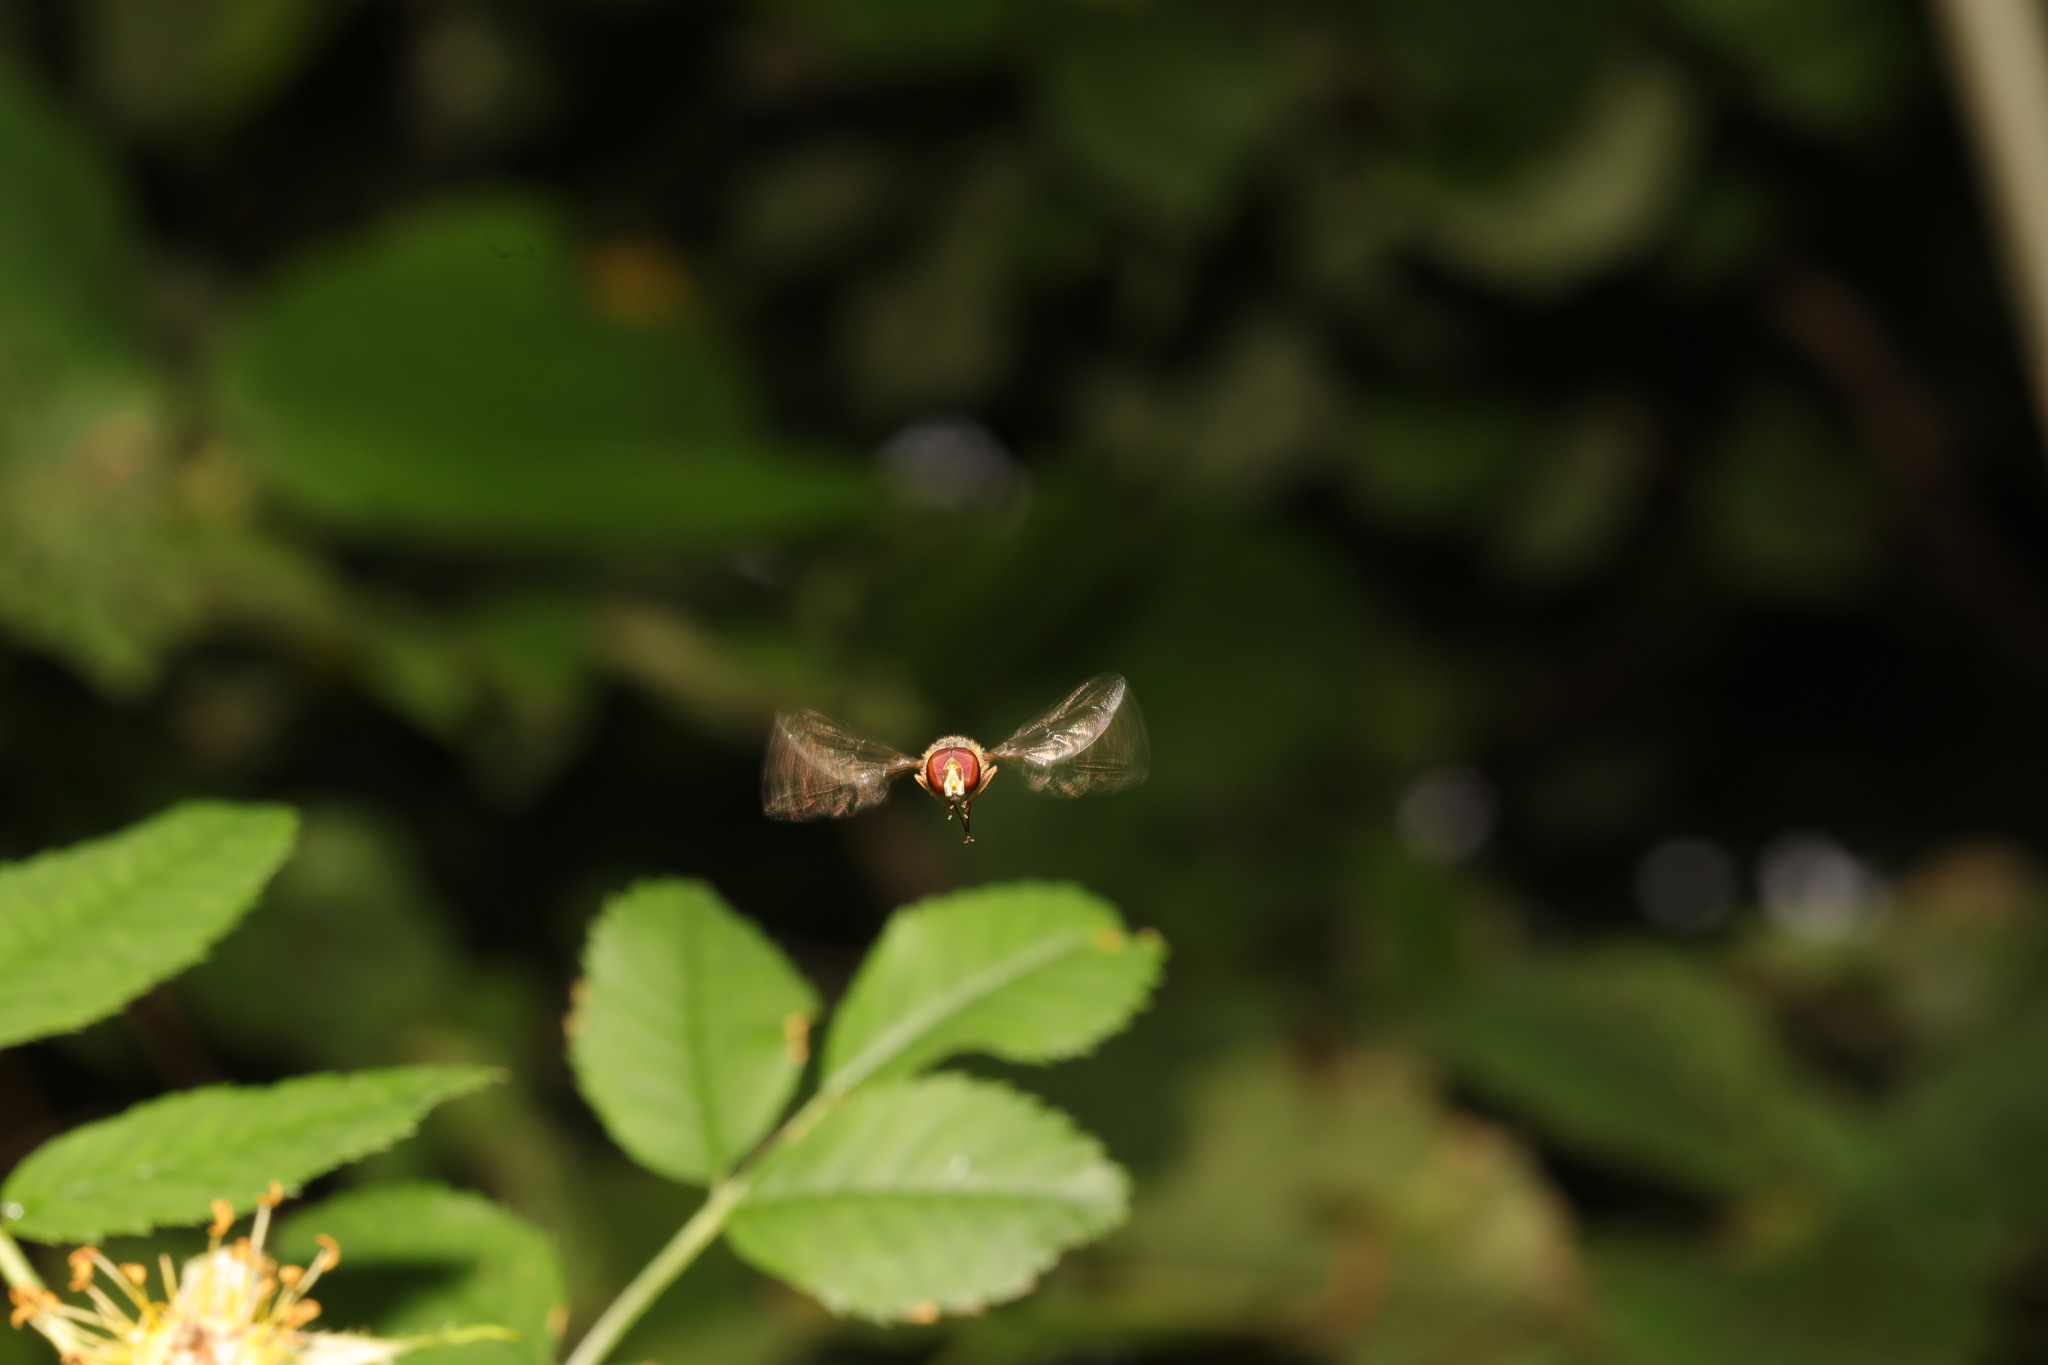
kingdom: Animalia
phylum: Arthropoda
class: Insecta
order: Diptera
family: Syrphidae
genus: Episyrphus
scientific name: Episyrphus balteatus
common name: Marmalade hoverfly
